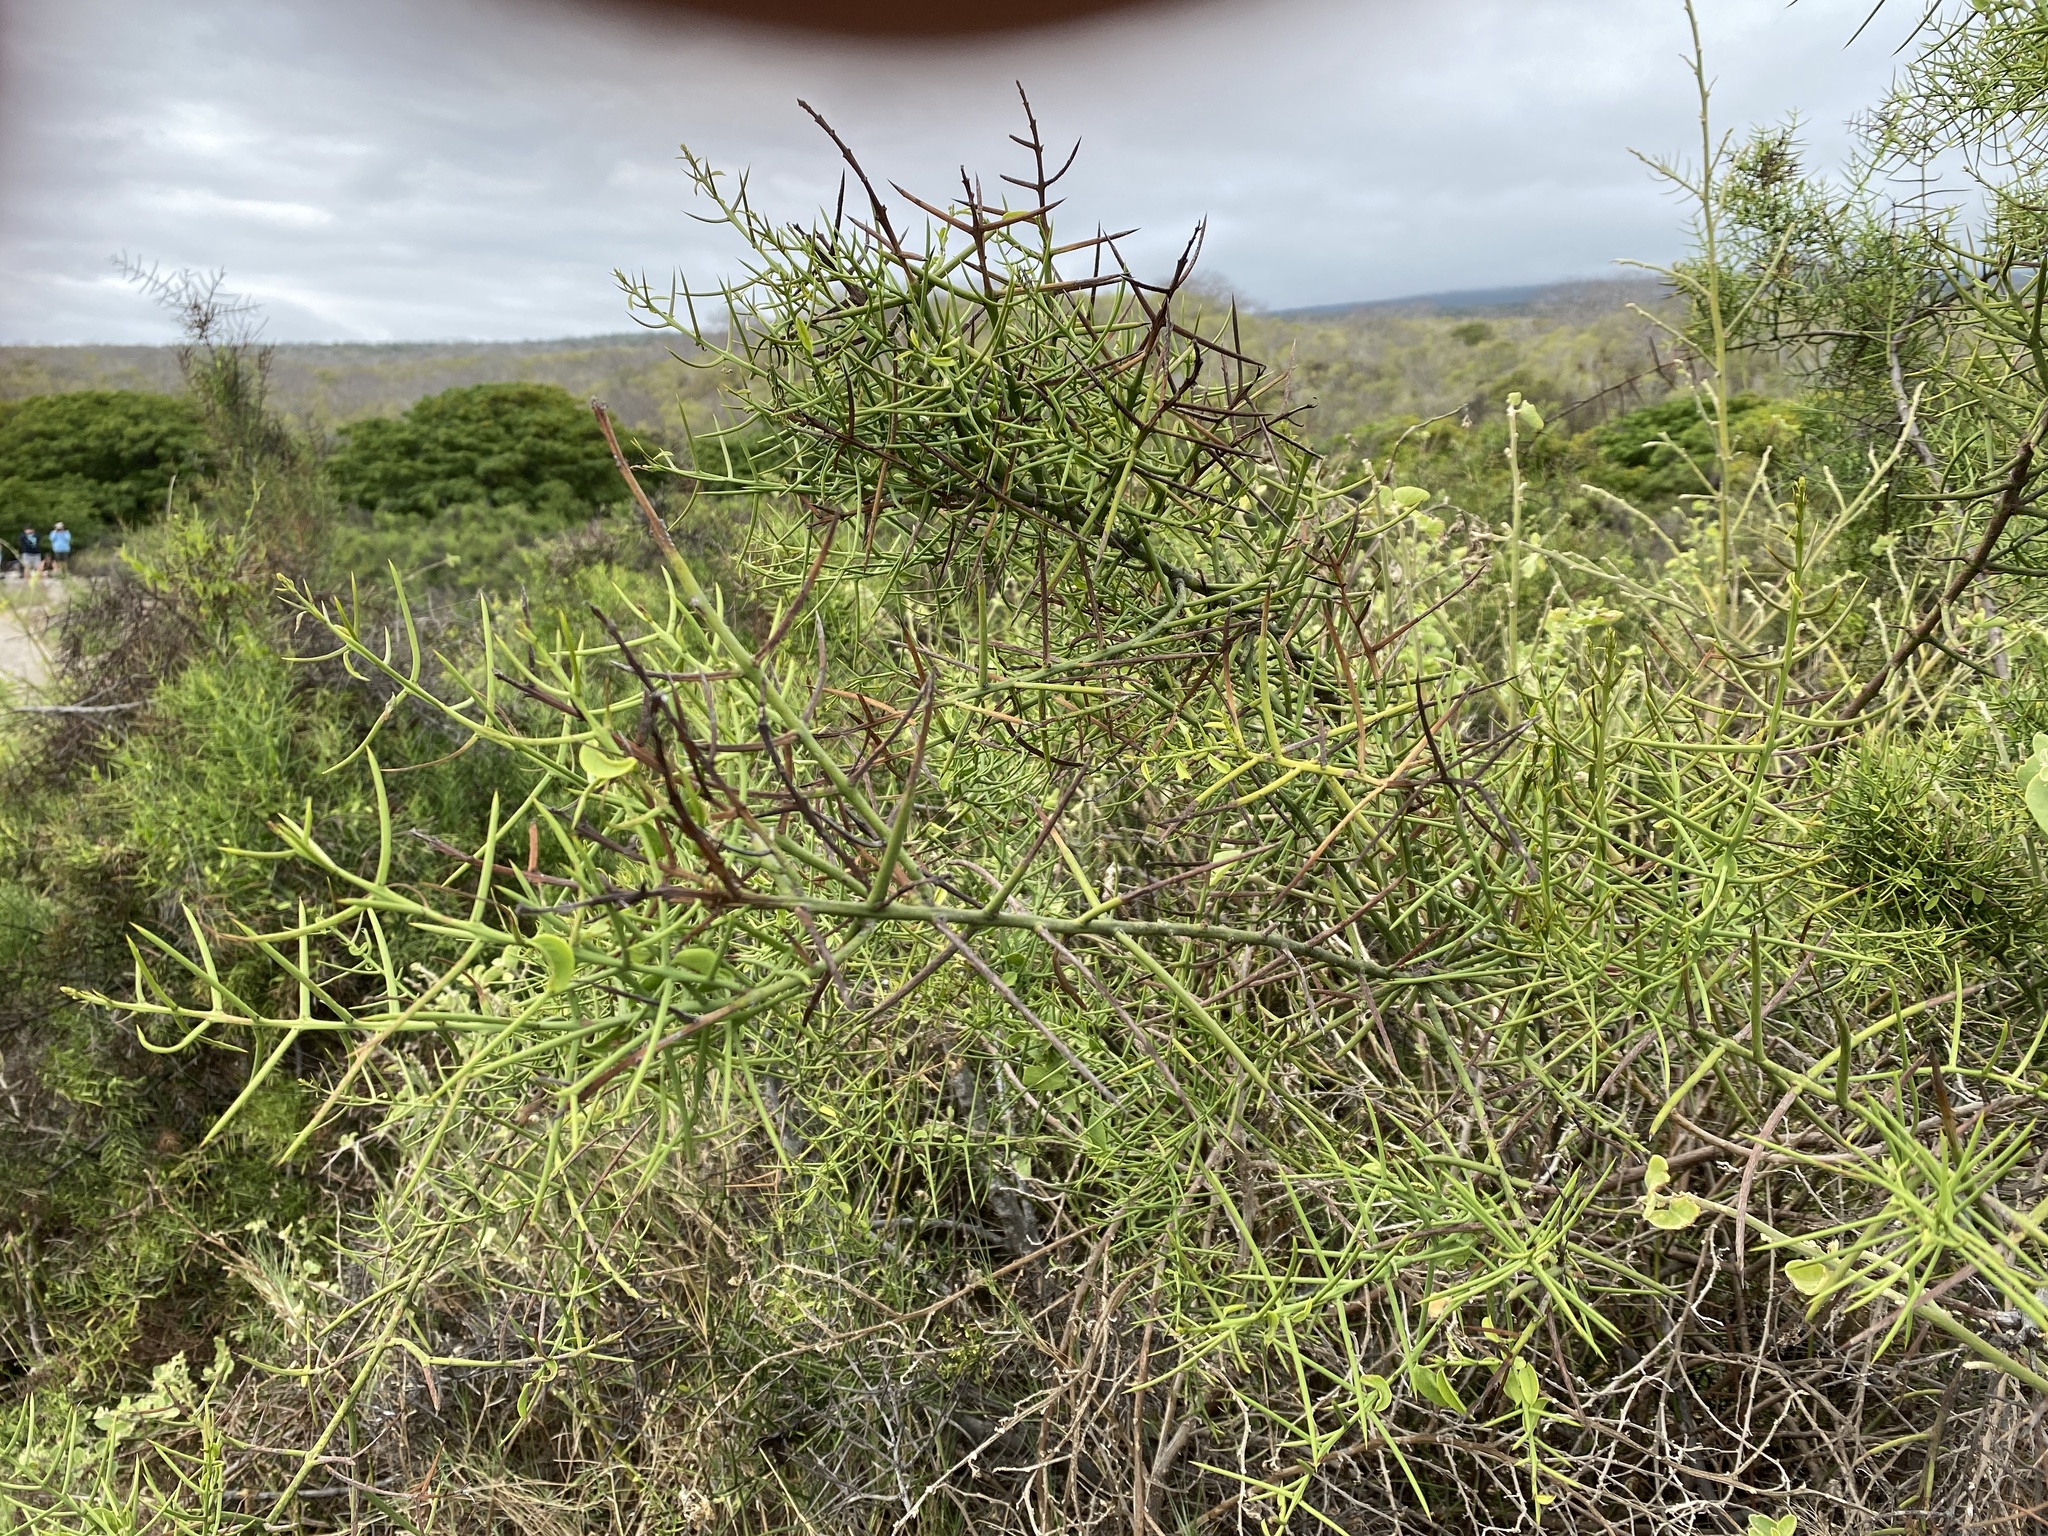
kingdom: Plantae
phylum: Tracheophyta
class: Magnoliopsida
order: Rosales
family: Rhamnaceae
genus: Scutia
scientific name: Scutia spicata
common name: Spiny bush
